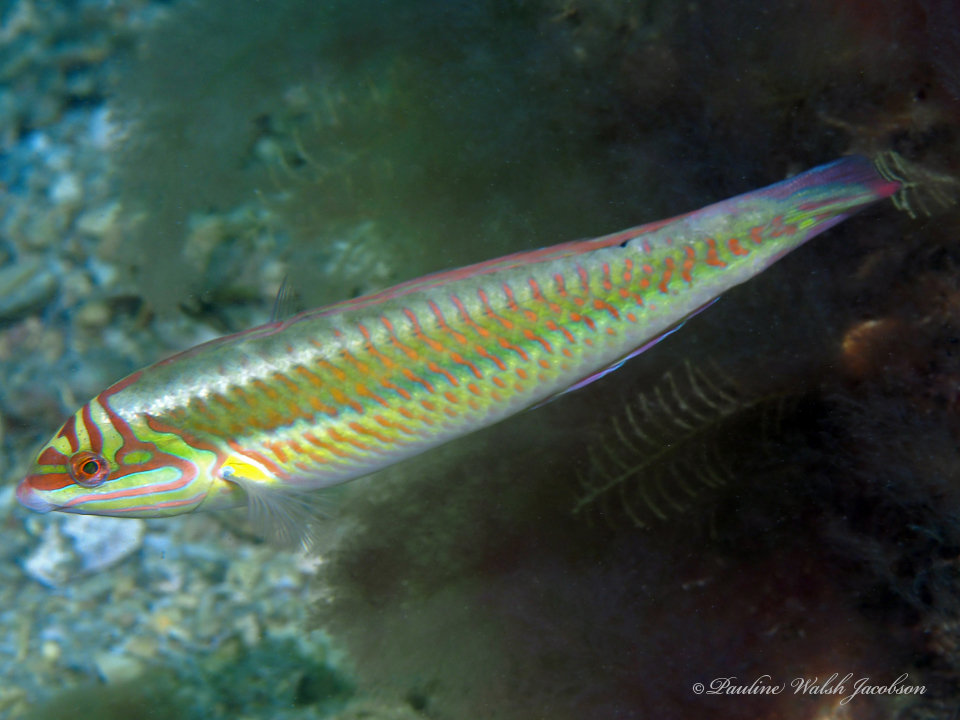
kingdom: Animalia
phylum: Chordata
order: Perciformes
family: Labridae
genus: Halichoeres
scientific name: Halichoeres maculipinna
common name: Clown wrasse
